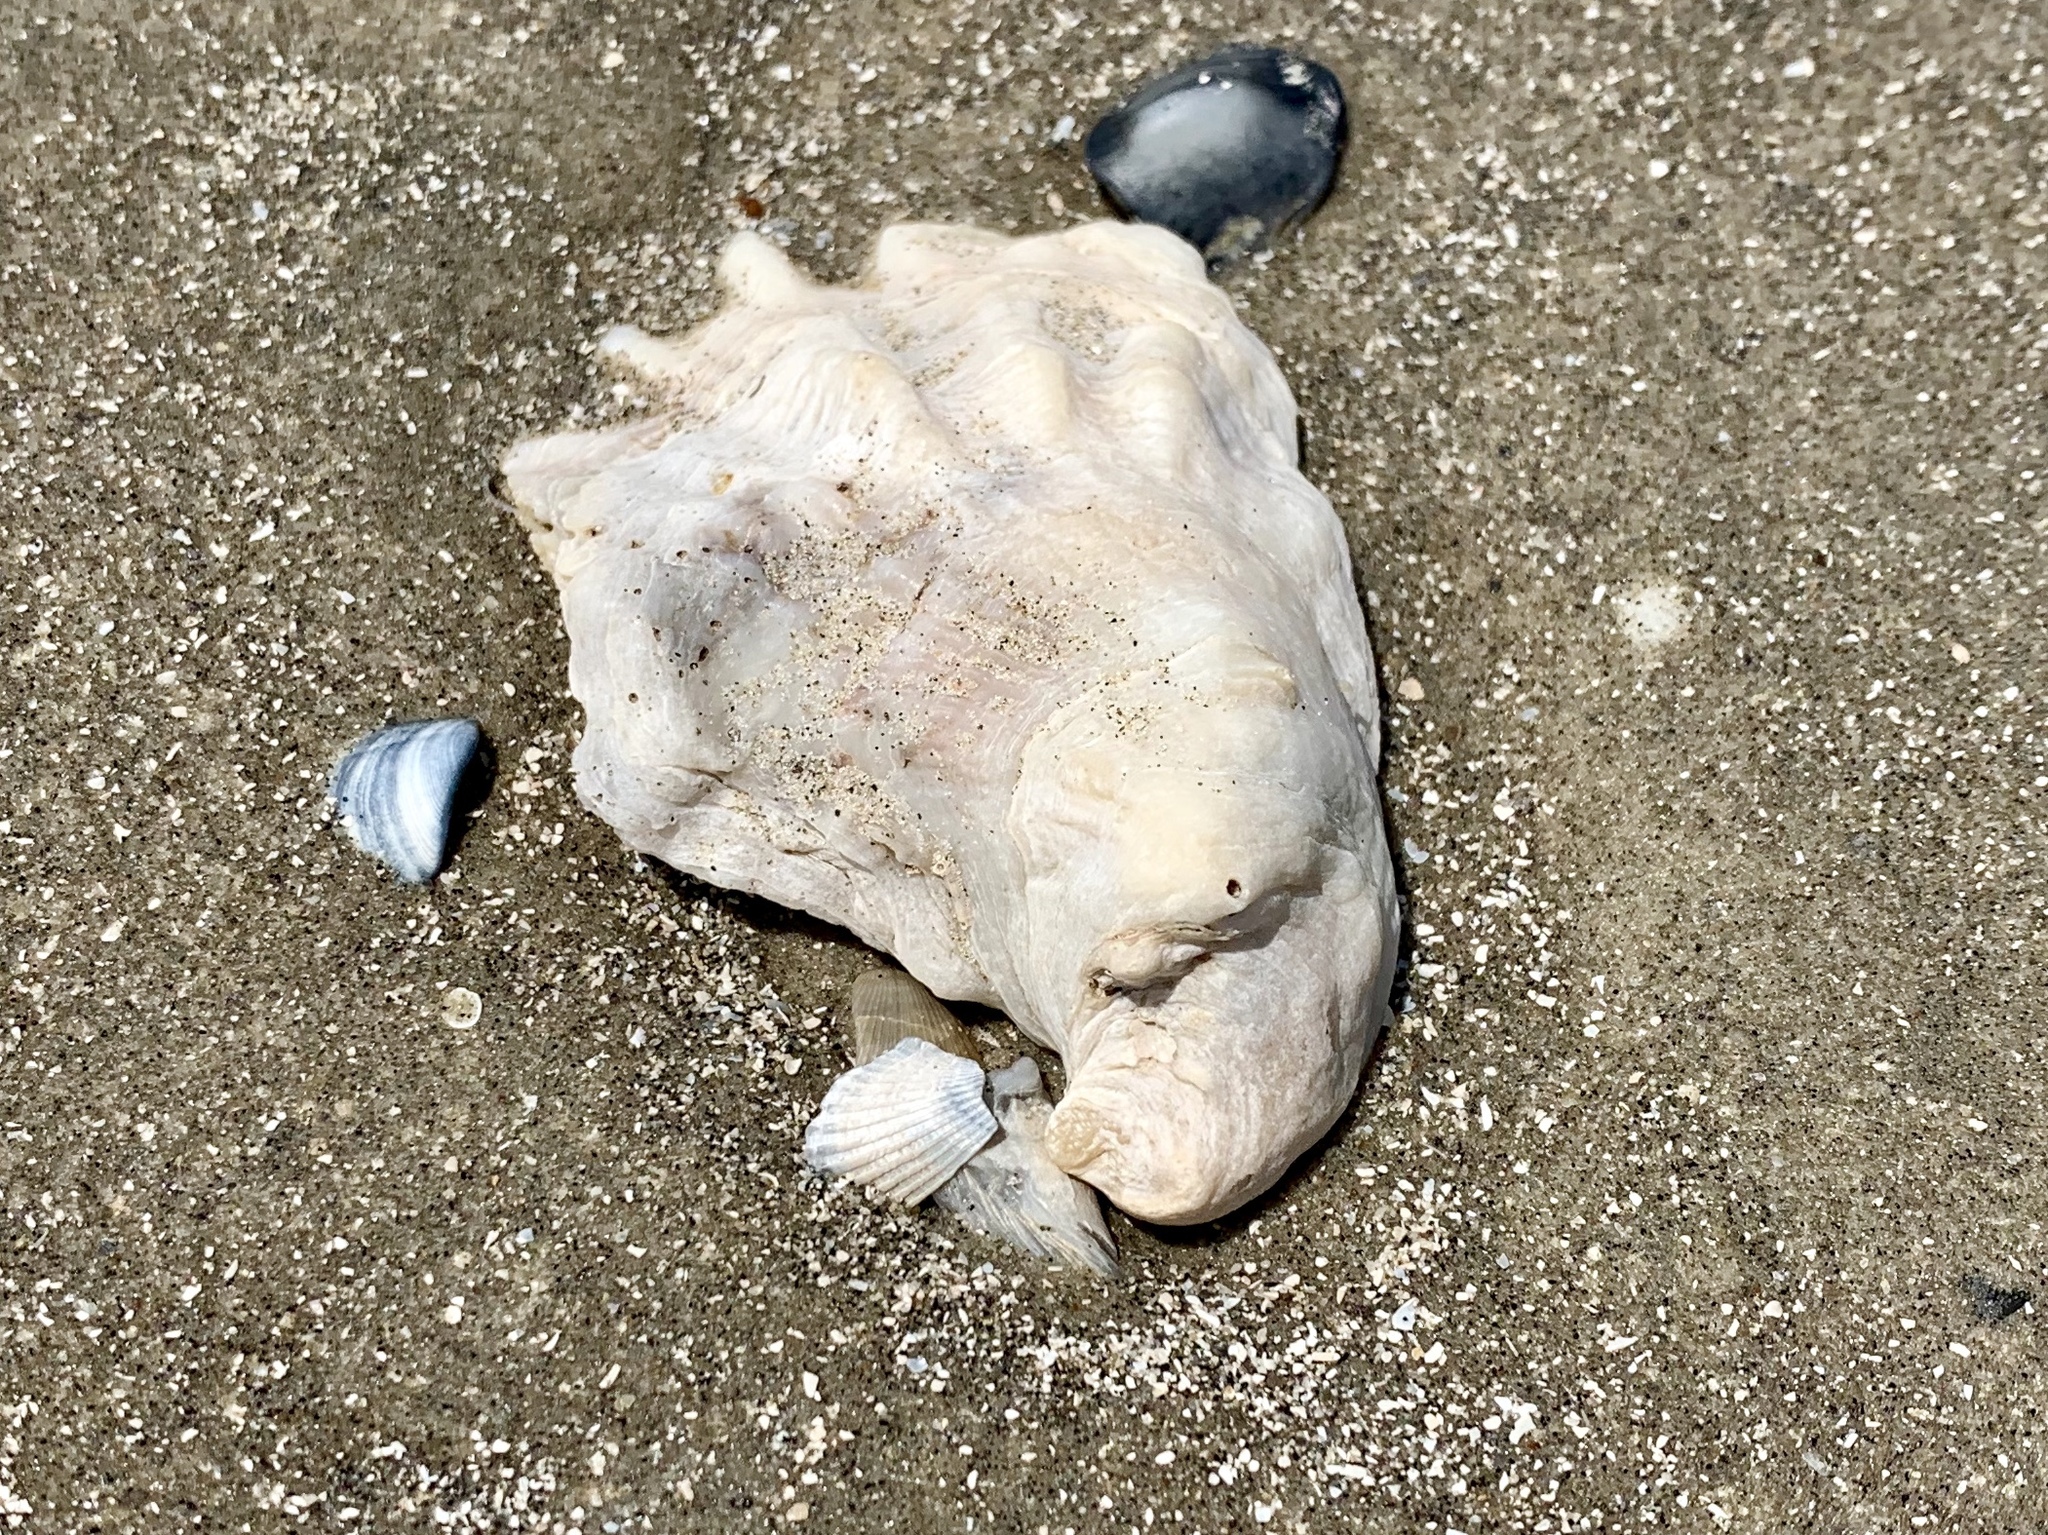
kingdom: Animalia
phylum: Mollusca
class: Bivalvia
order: Ostreida
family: Ostreidae
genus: Crassostrea
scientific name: Crassostrea virginica
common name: American oyster
